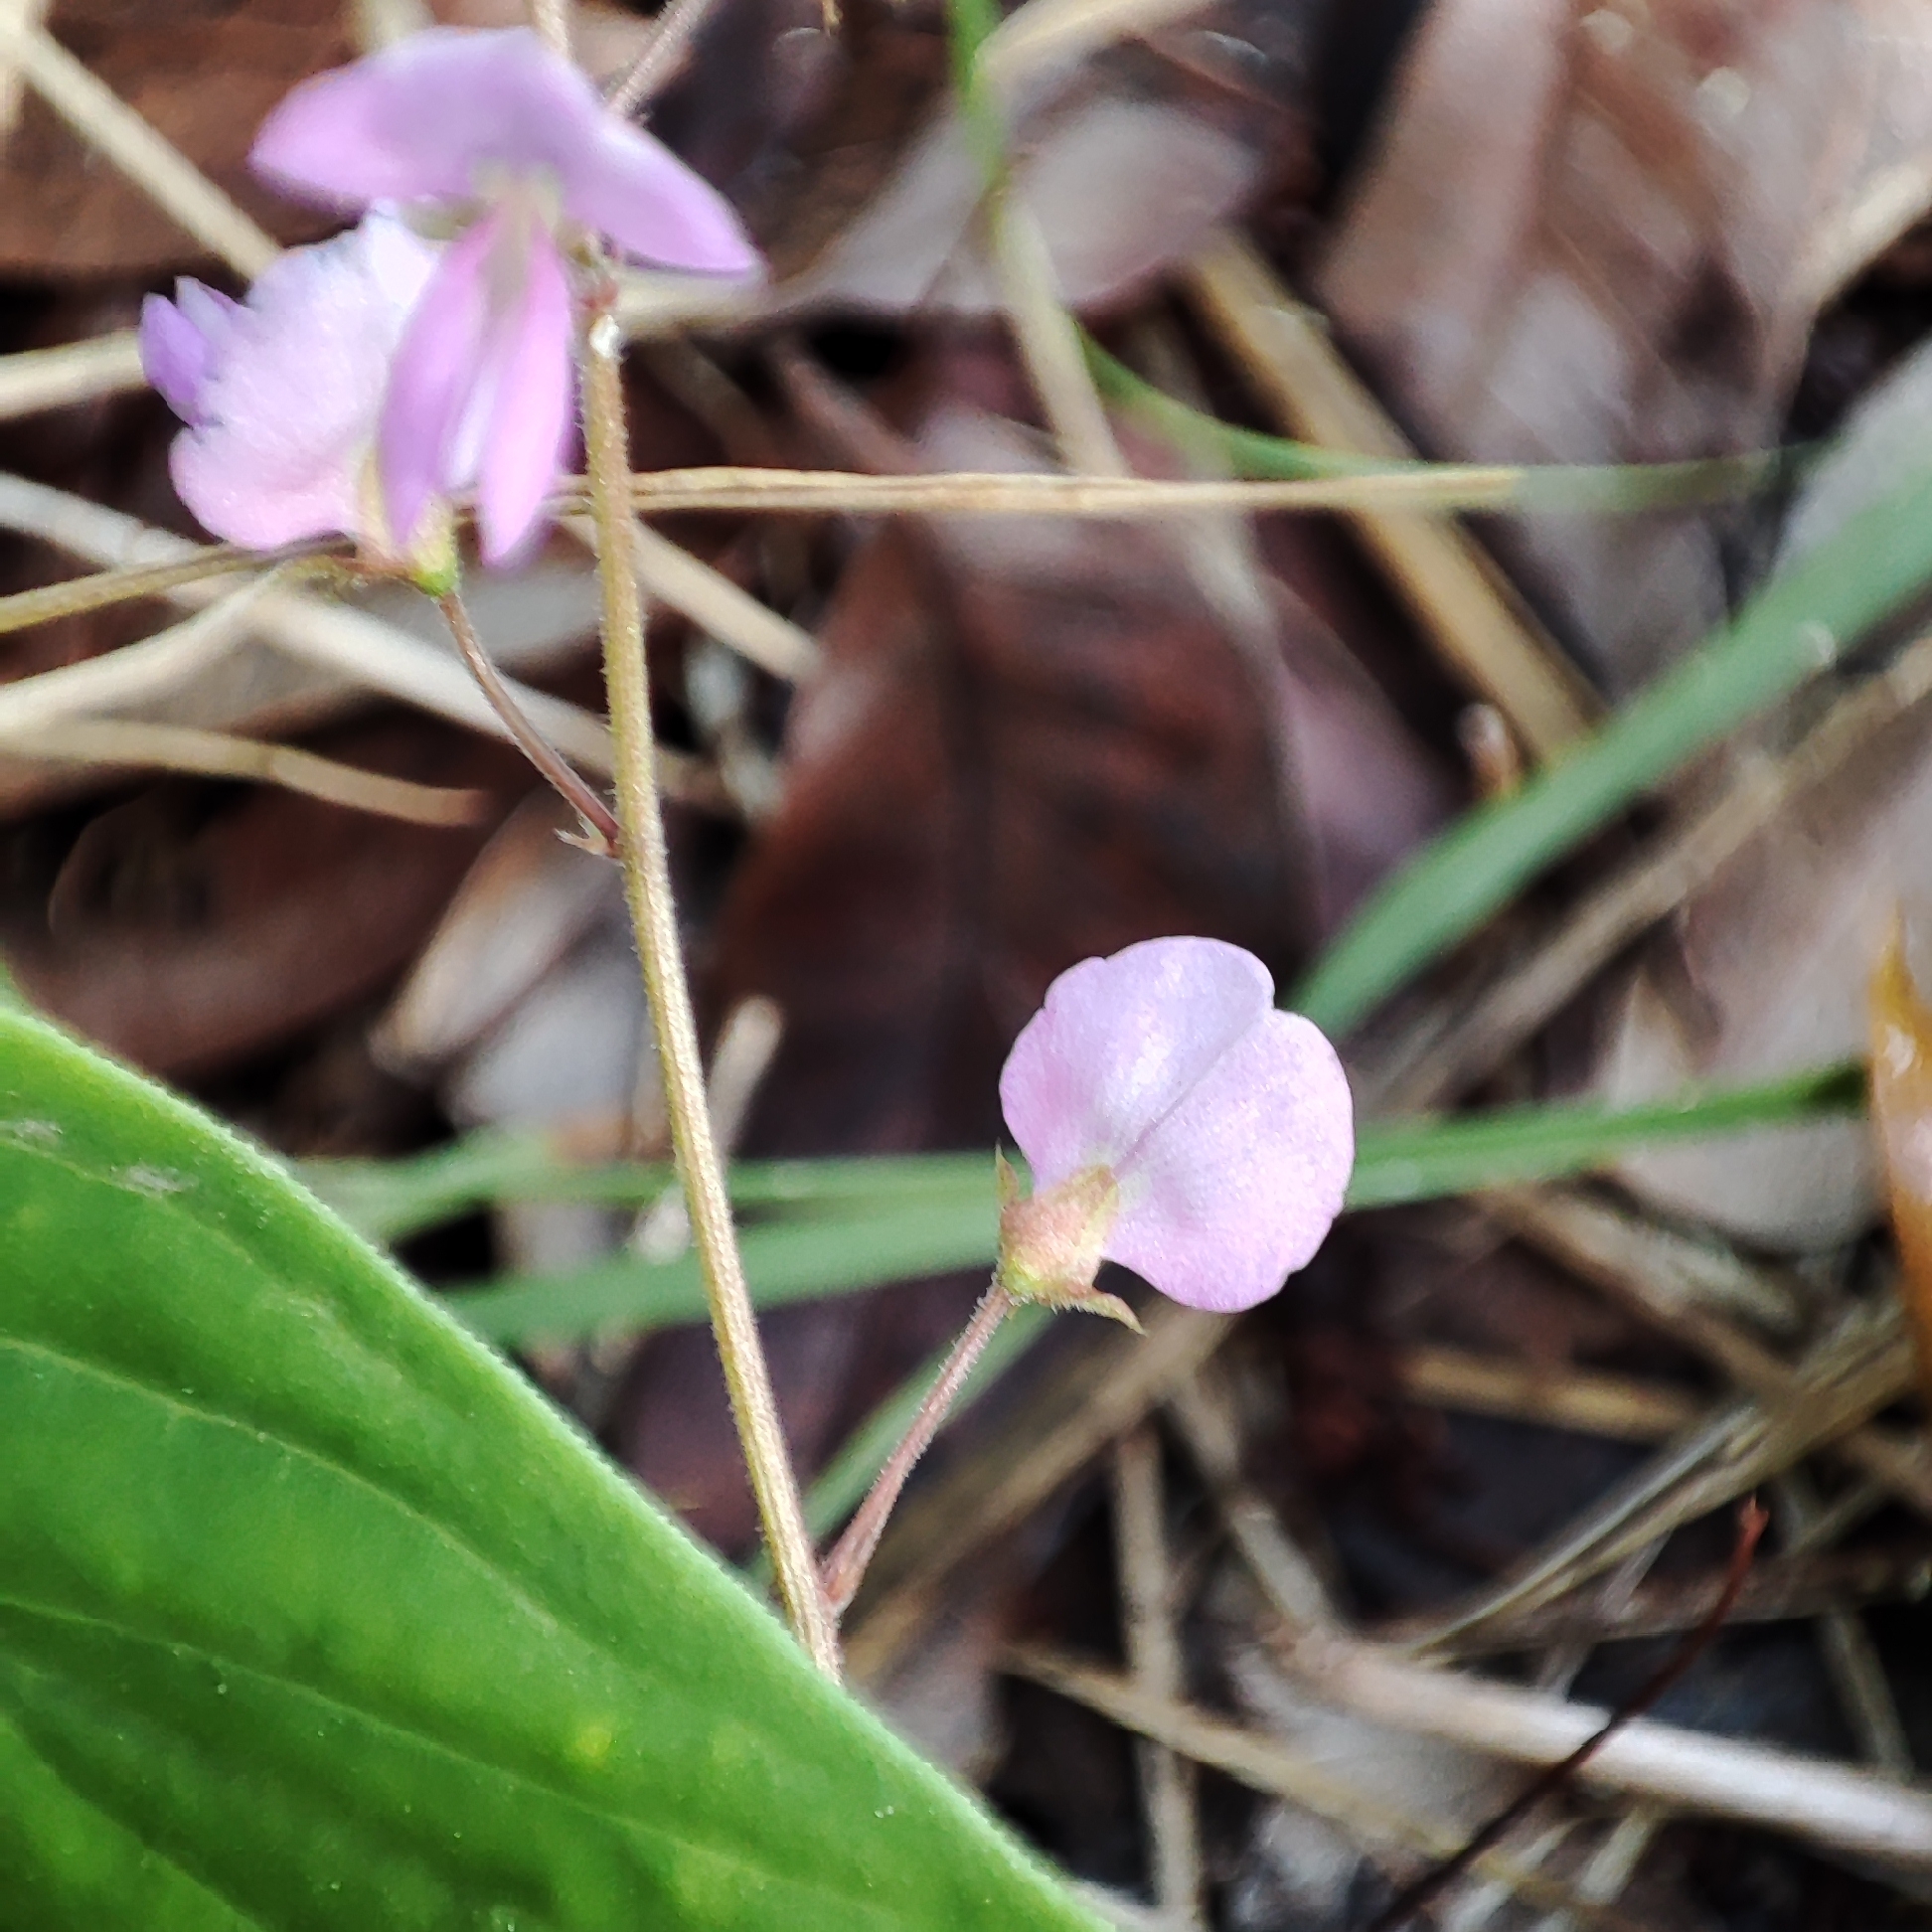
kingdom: Plantae
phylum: Tracheophyta
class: Magnoliopsida
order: Fabales
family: Fabaceae
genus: Desmodium
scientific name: Desmodium incanum
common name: Tickclover
